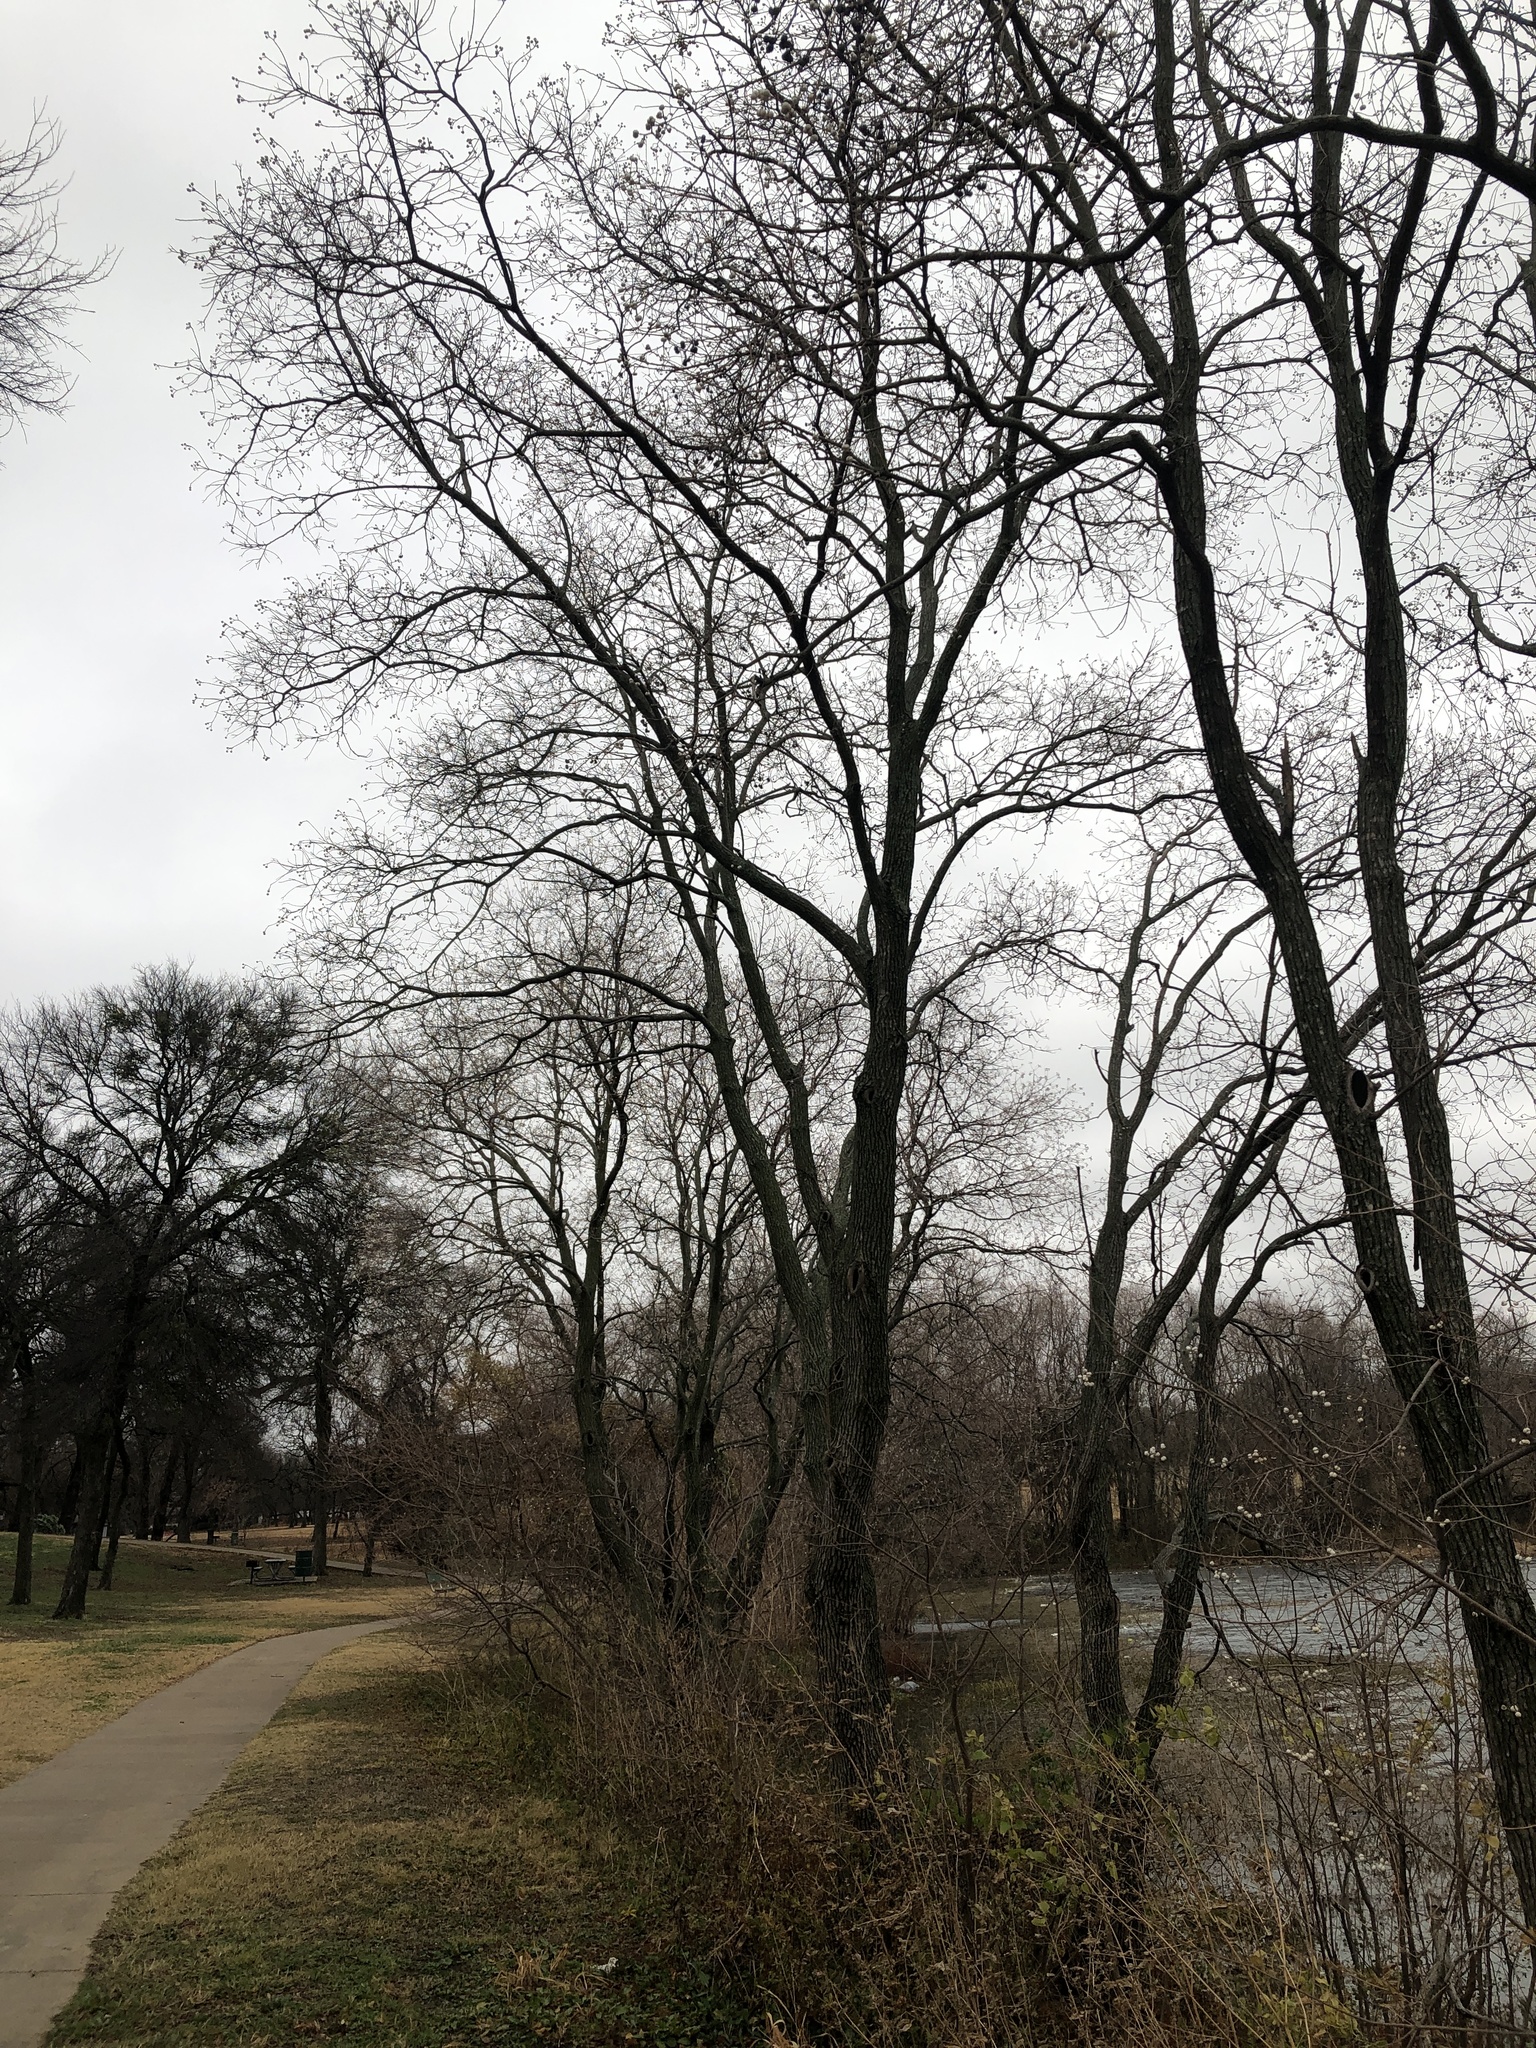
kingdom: Plantae
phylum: Tracheophyta
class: Magnoliopsida
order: Malpighiales
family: Euphorbiaceae
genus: Triadica
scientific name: Triadica sebifera
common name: Chinese tallow
